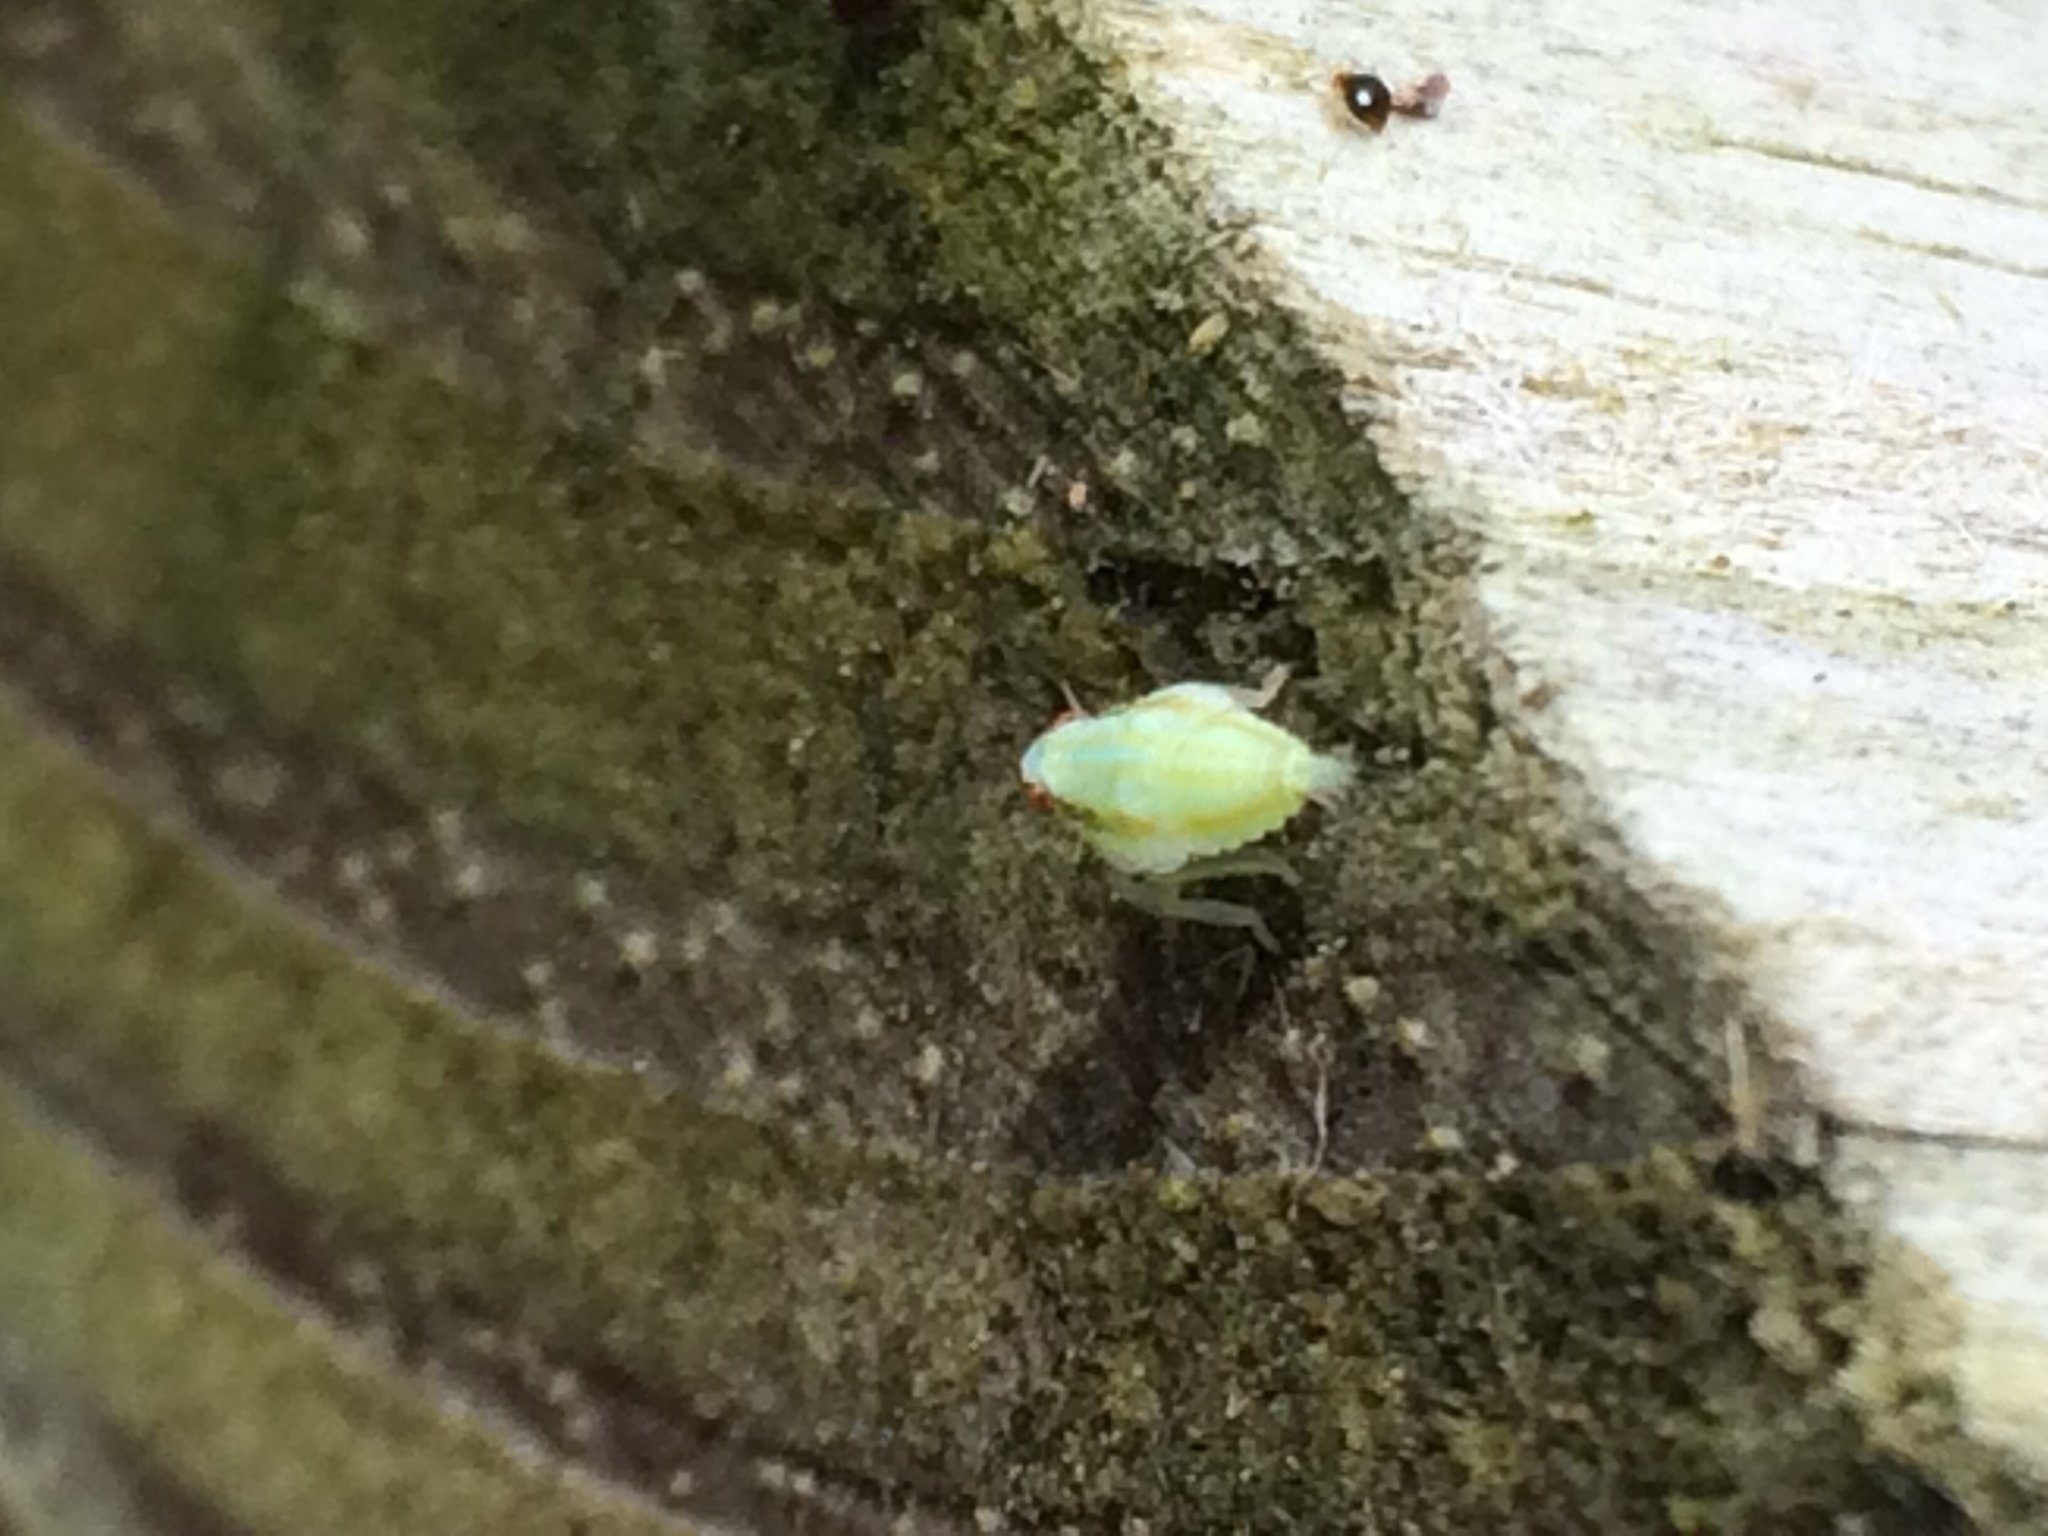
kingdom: Animalia
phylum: Arthropoda
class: Insecta
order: Hemiptera
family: Issidae
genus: Thionia
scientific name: Thionia bullata
